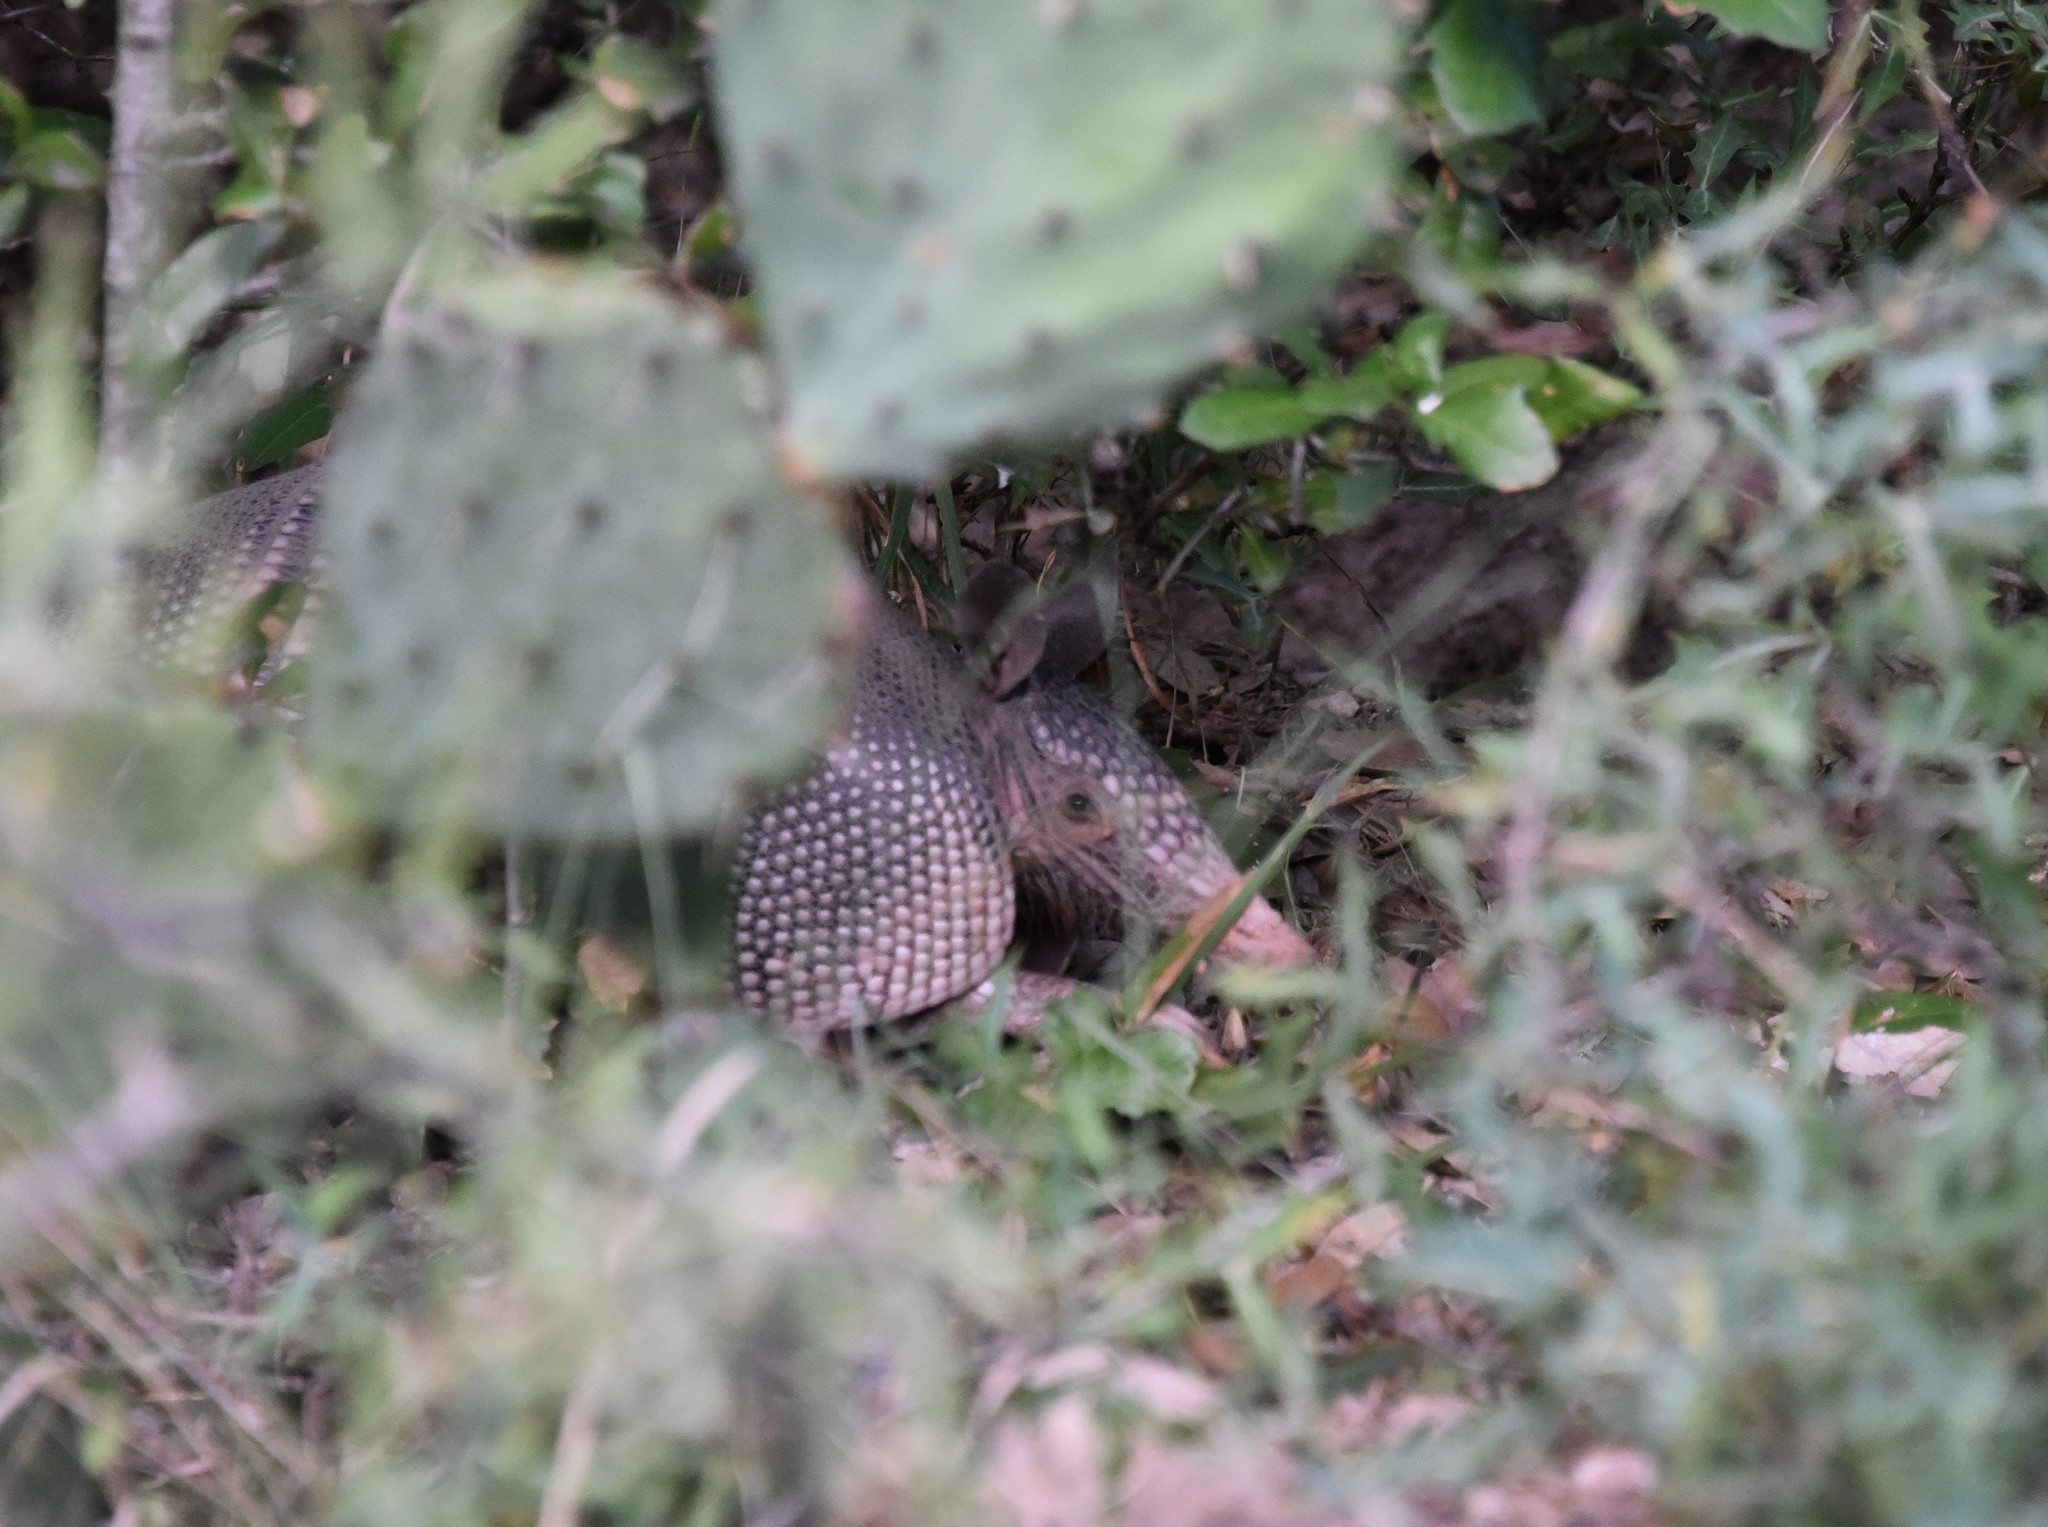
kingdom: Animalia
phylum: Chordata
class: Mammalia
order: Cingulata
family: Dasypodidae
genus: Dasypus
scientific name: Dasypus novemcinctus
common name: Nine-banded armadillo
